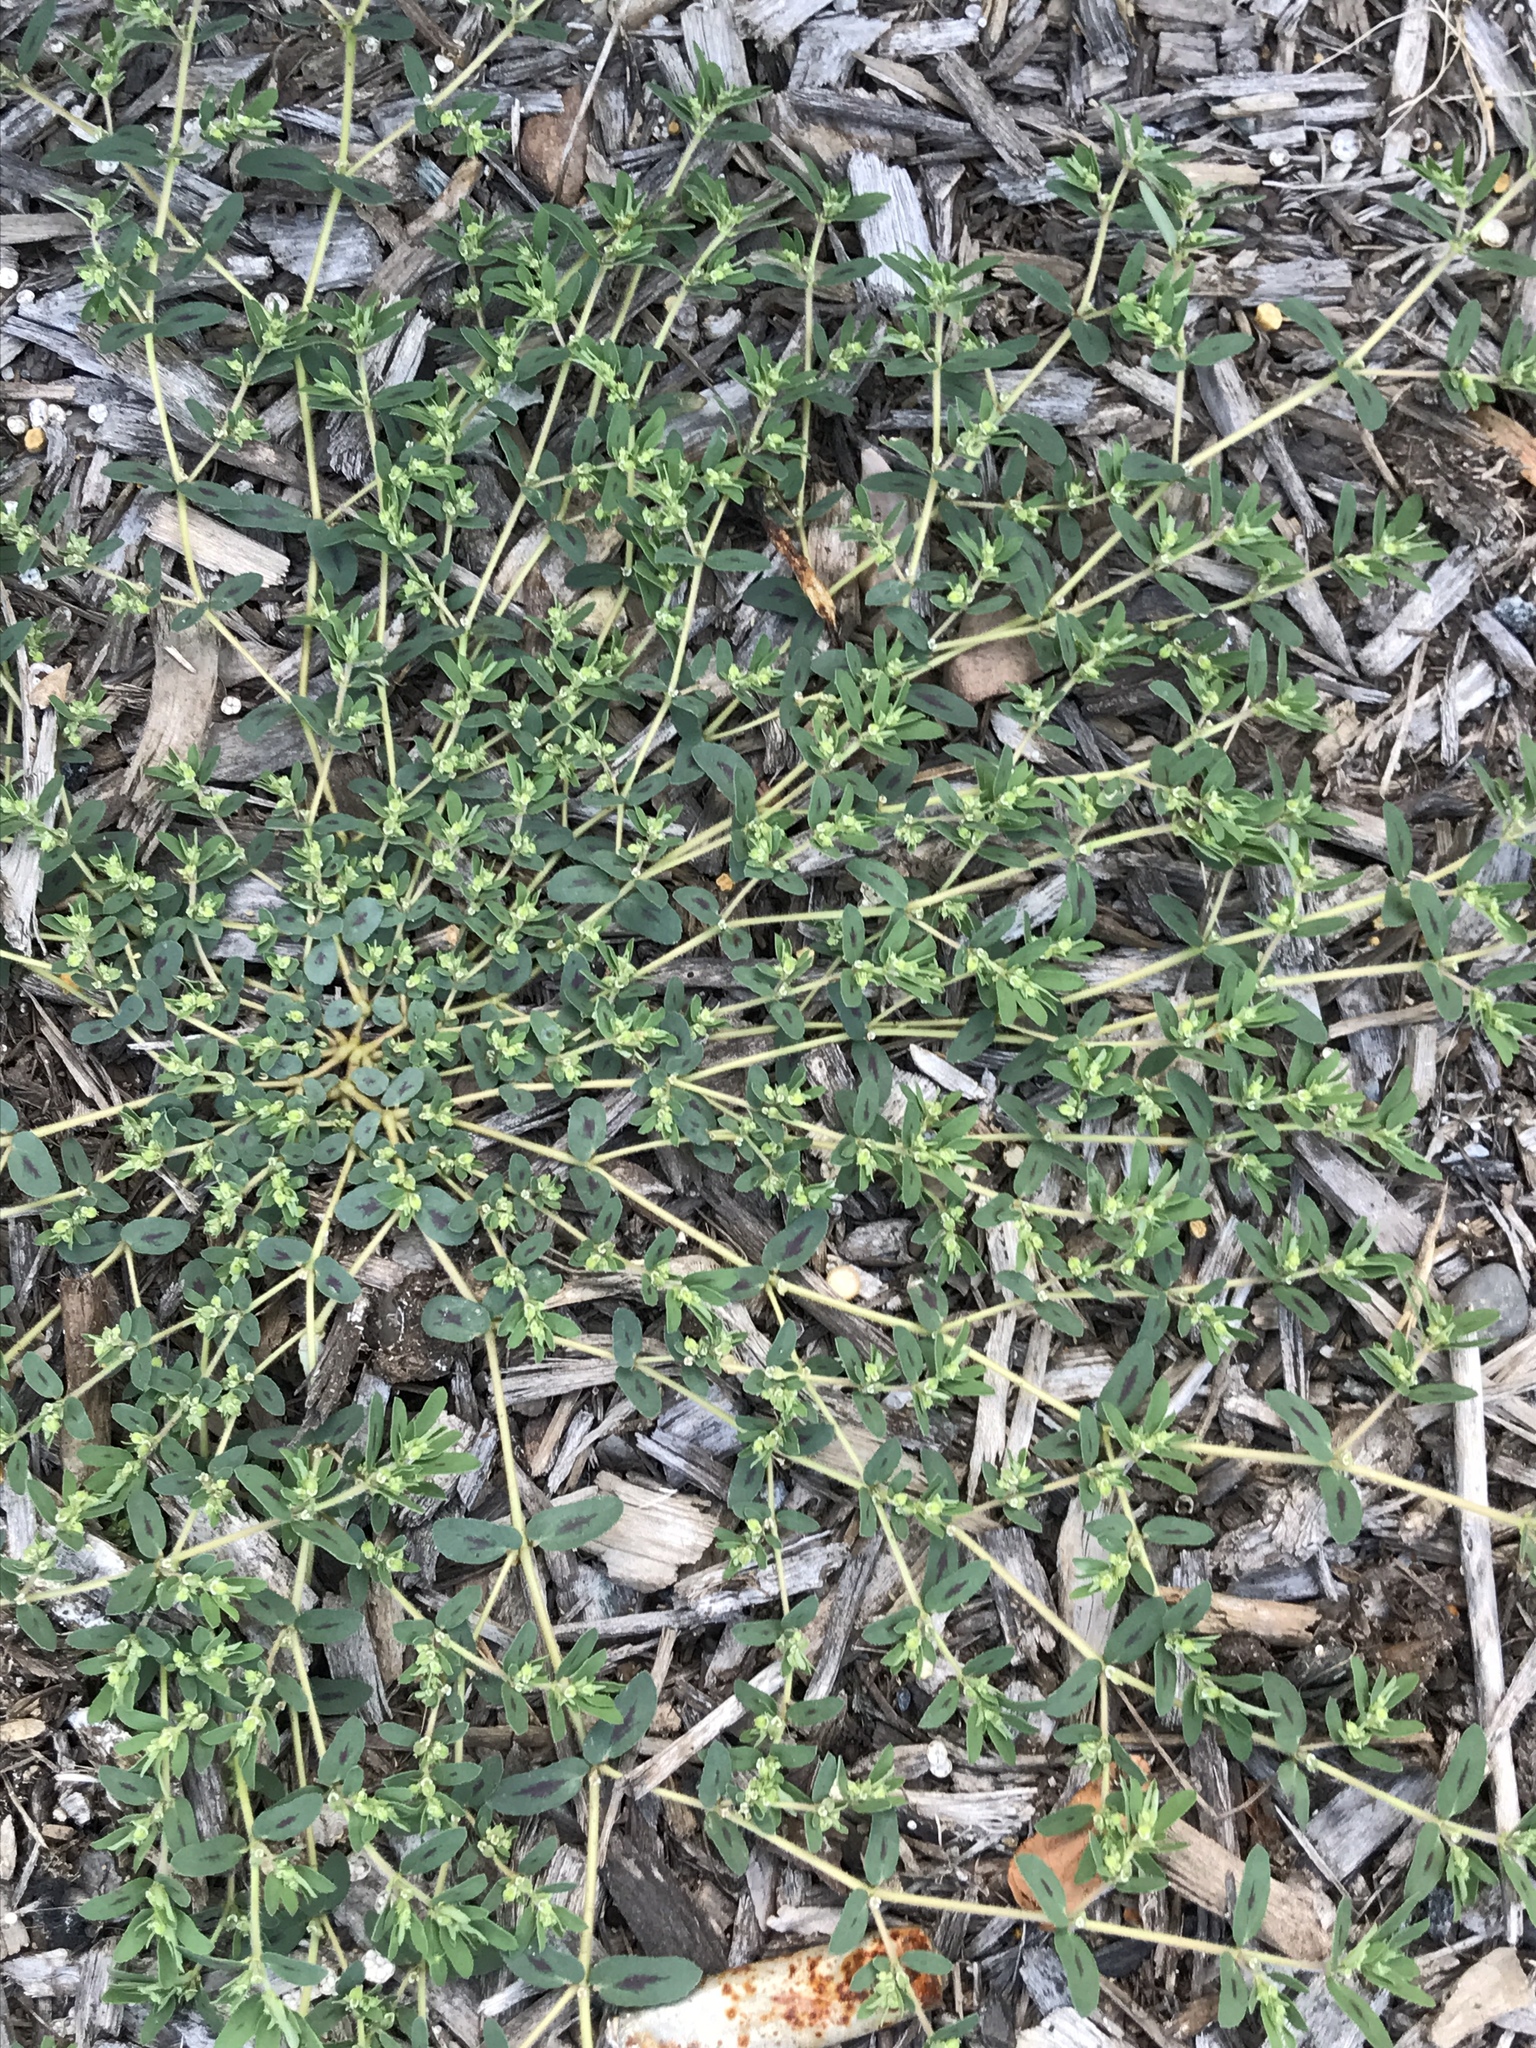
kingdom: Plantae
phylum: Tracheophyta
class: Magnoliopsida
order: Malpighiales
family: Euphorbiaceae
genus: Euphorbia
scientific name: Euphorbia maculata
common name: Spotted spurge
